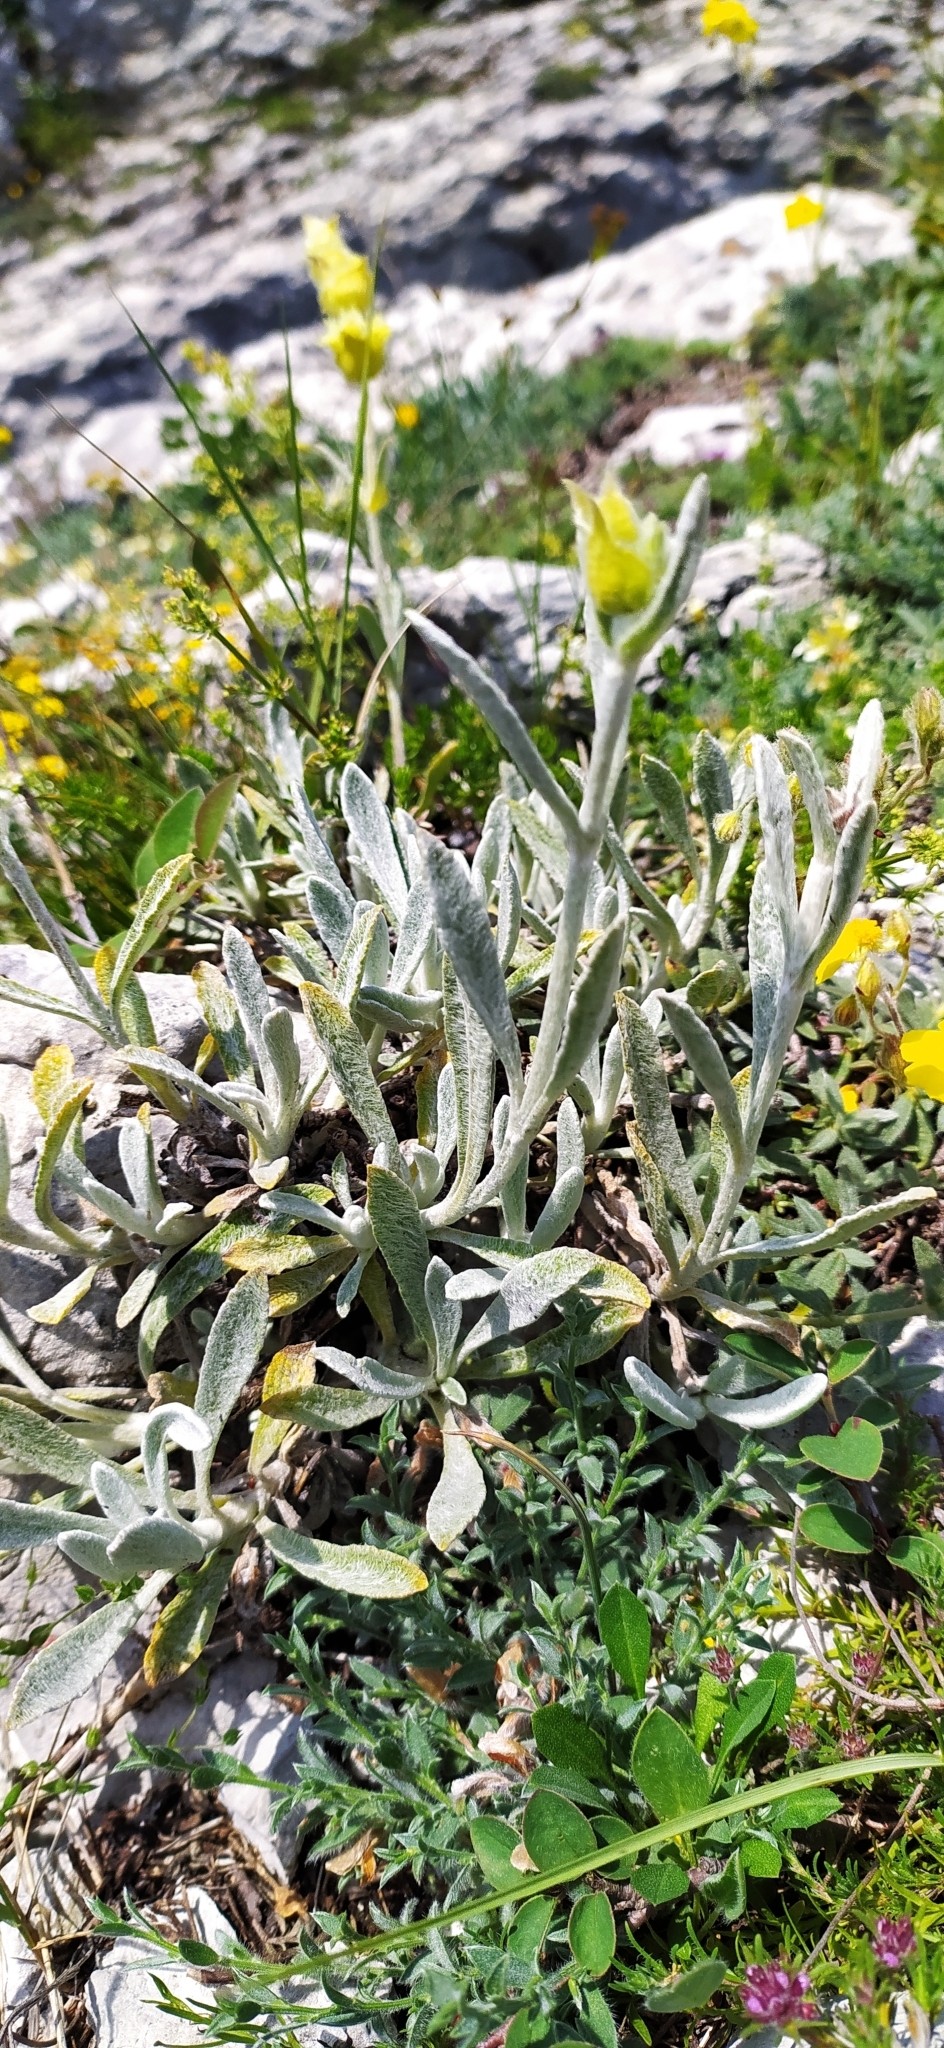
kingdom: Plantae
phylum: Tracheophyta
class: Magnoliopsida
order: Lamiales
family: Lamiaceae
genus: Sideritis
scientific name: Sideritis taurica
